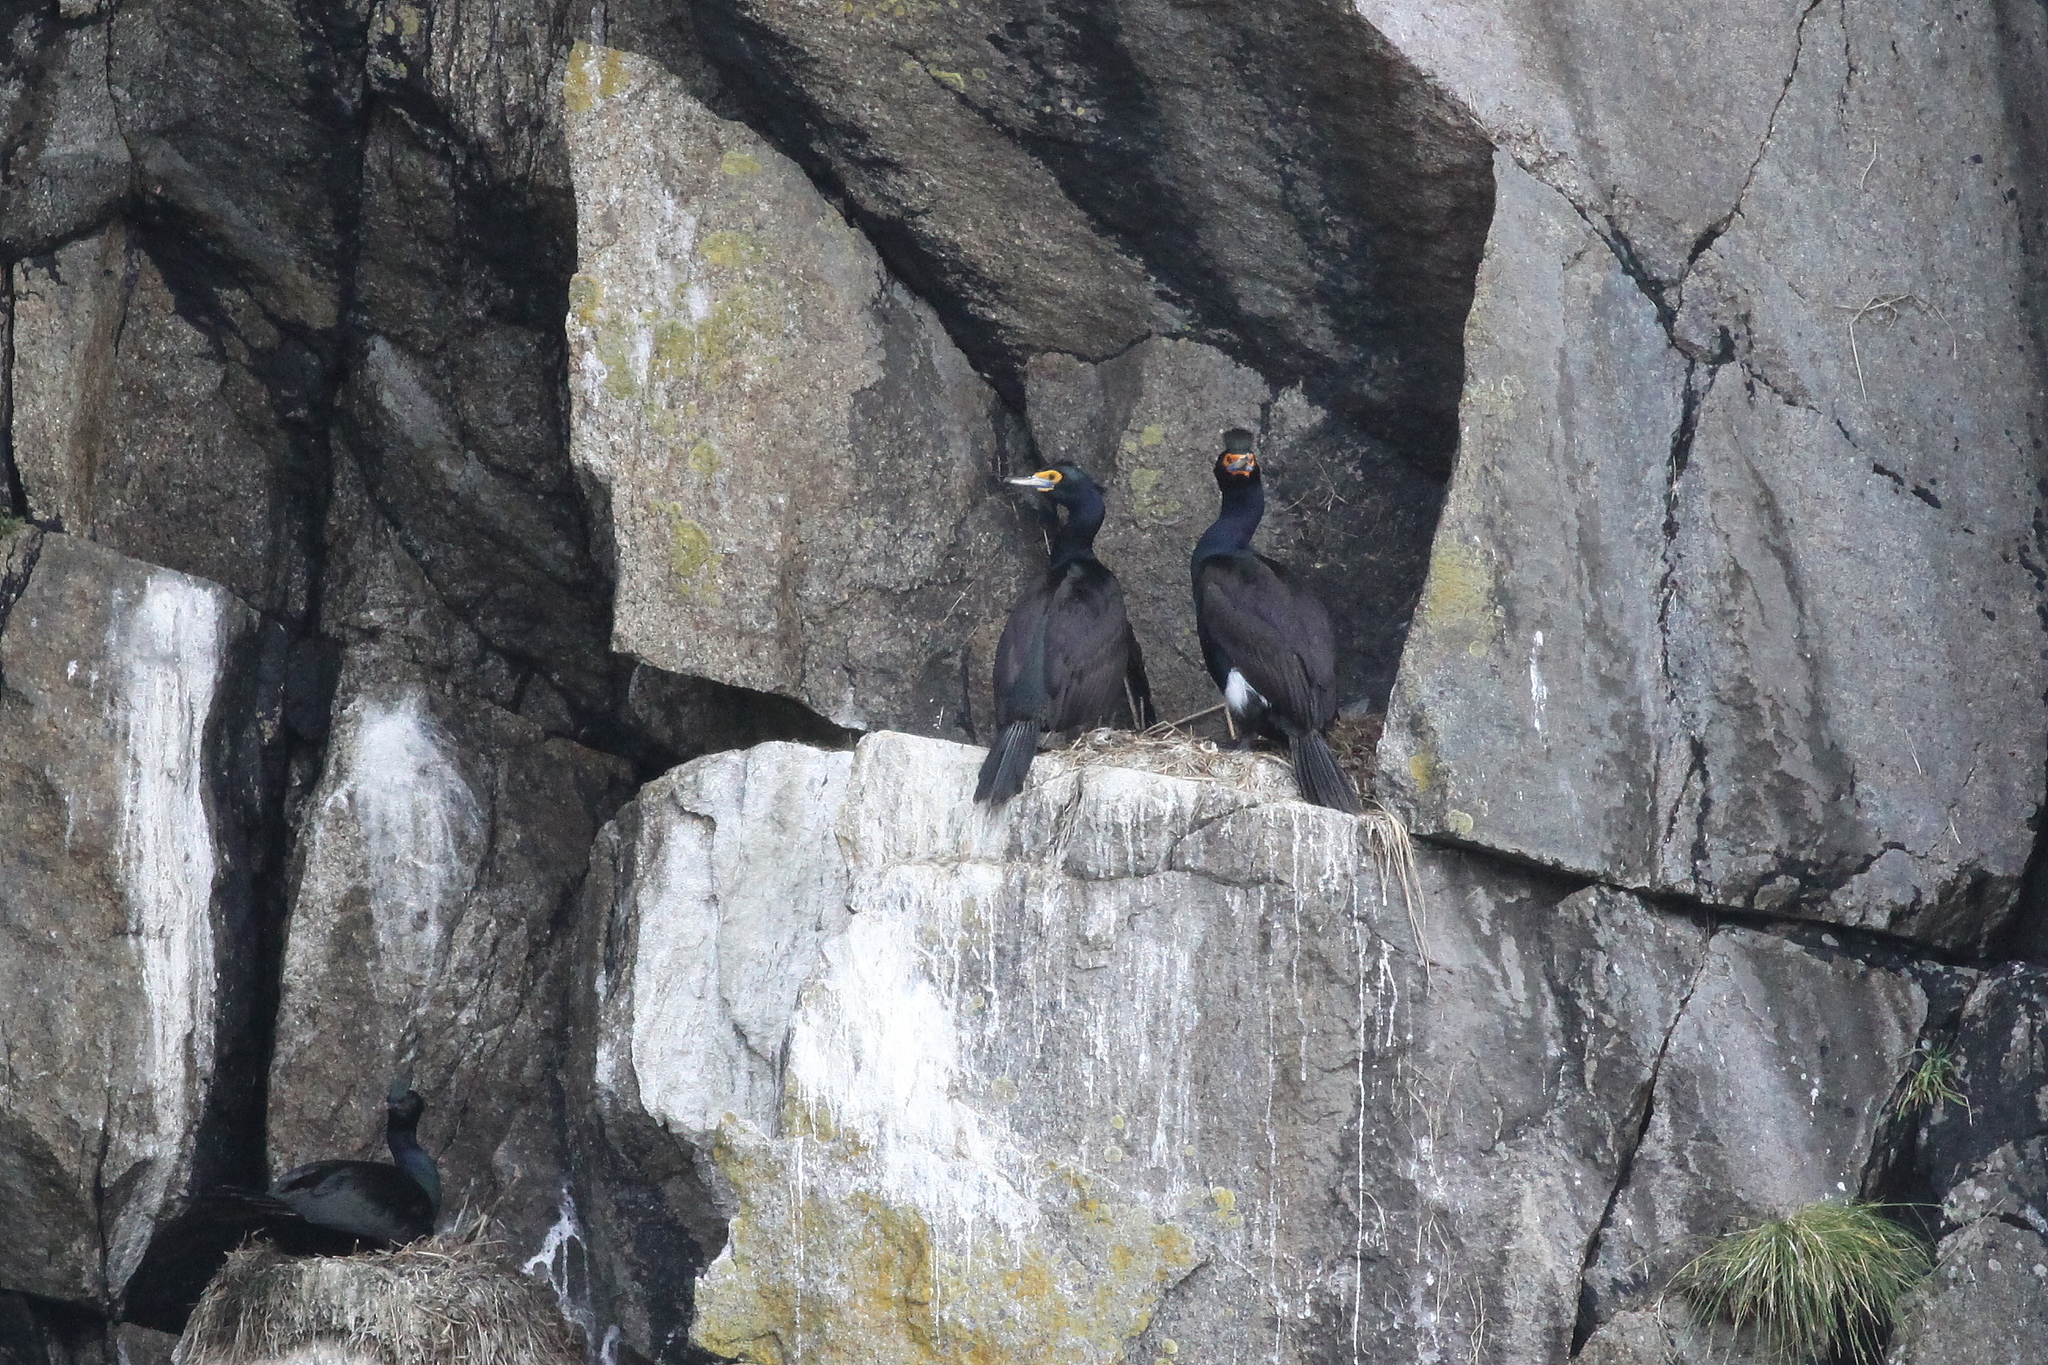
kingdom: Animalia
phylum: Chordata
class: Aves
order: Suliformes
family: Phalacrocoracidae
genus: Phalacrocorax
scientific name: Phalacrocorax urile
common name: Red-faced cormorant
